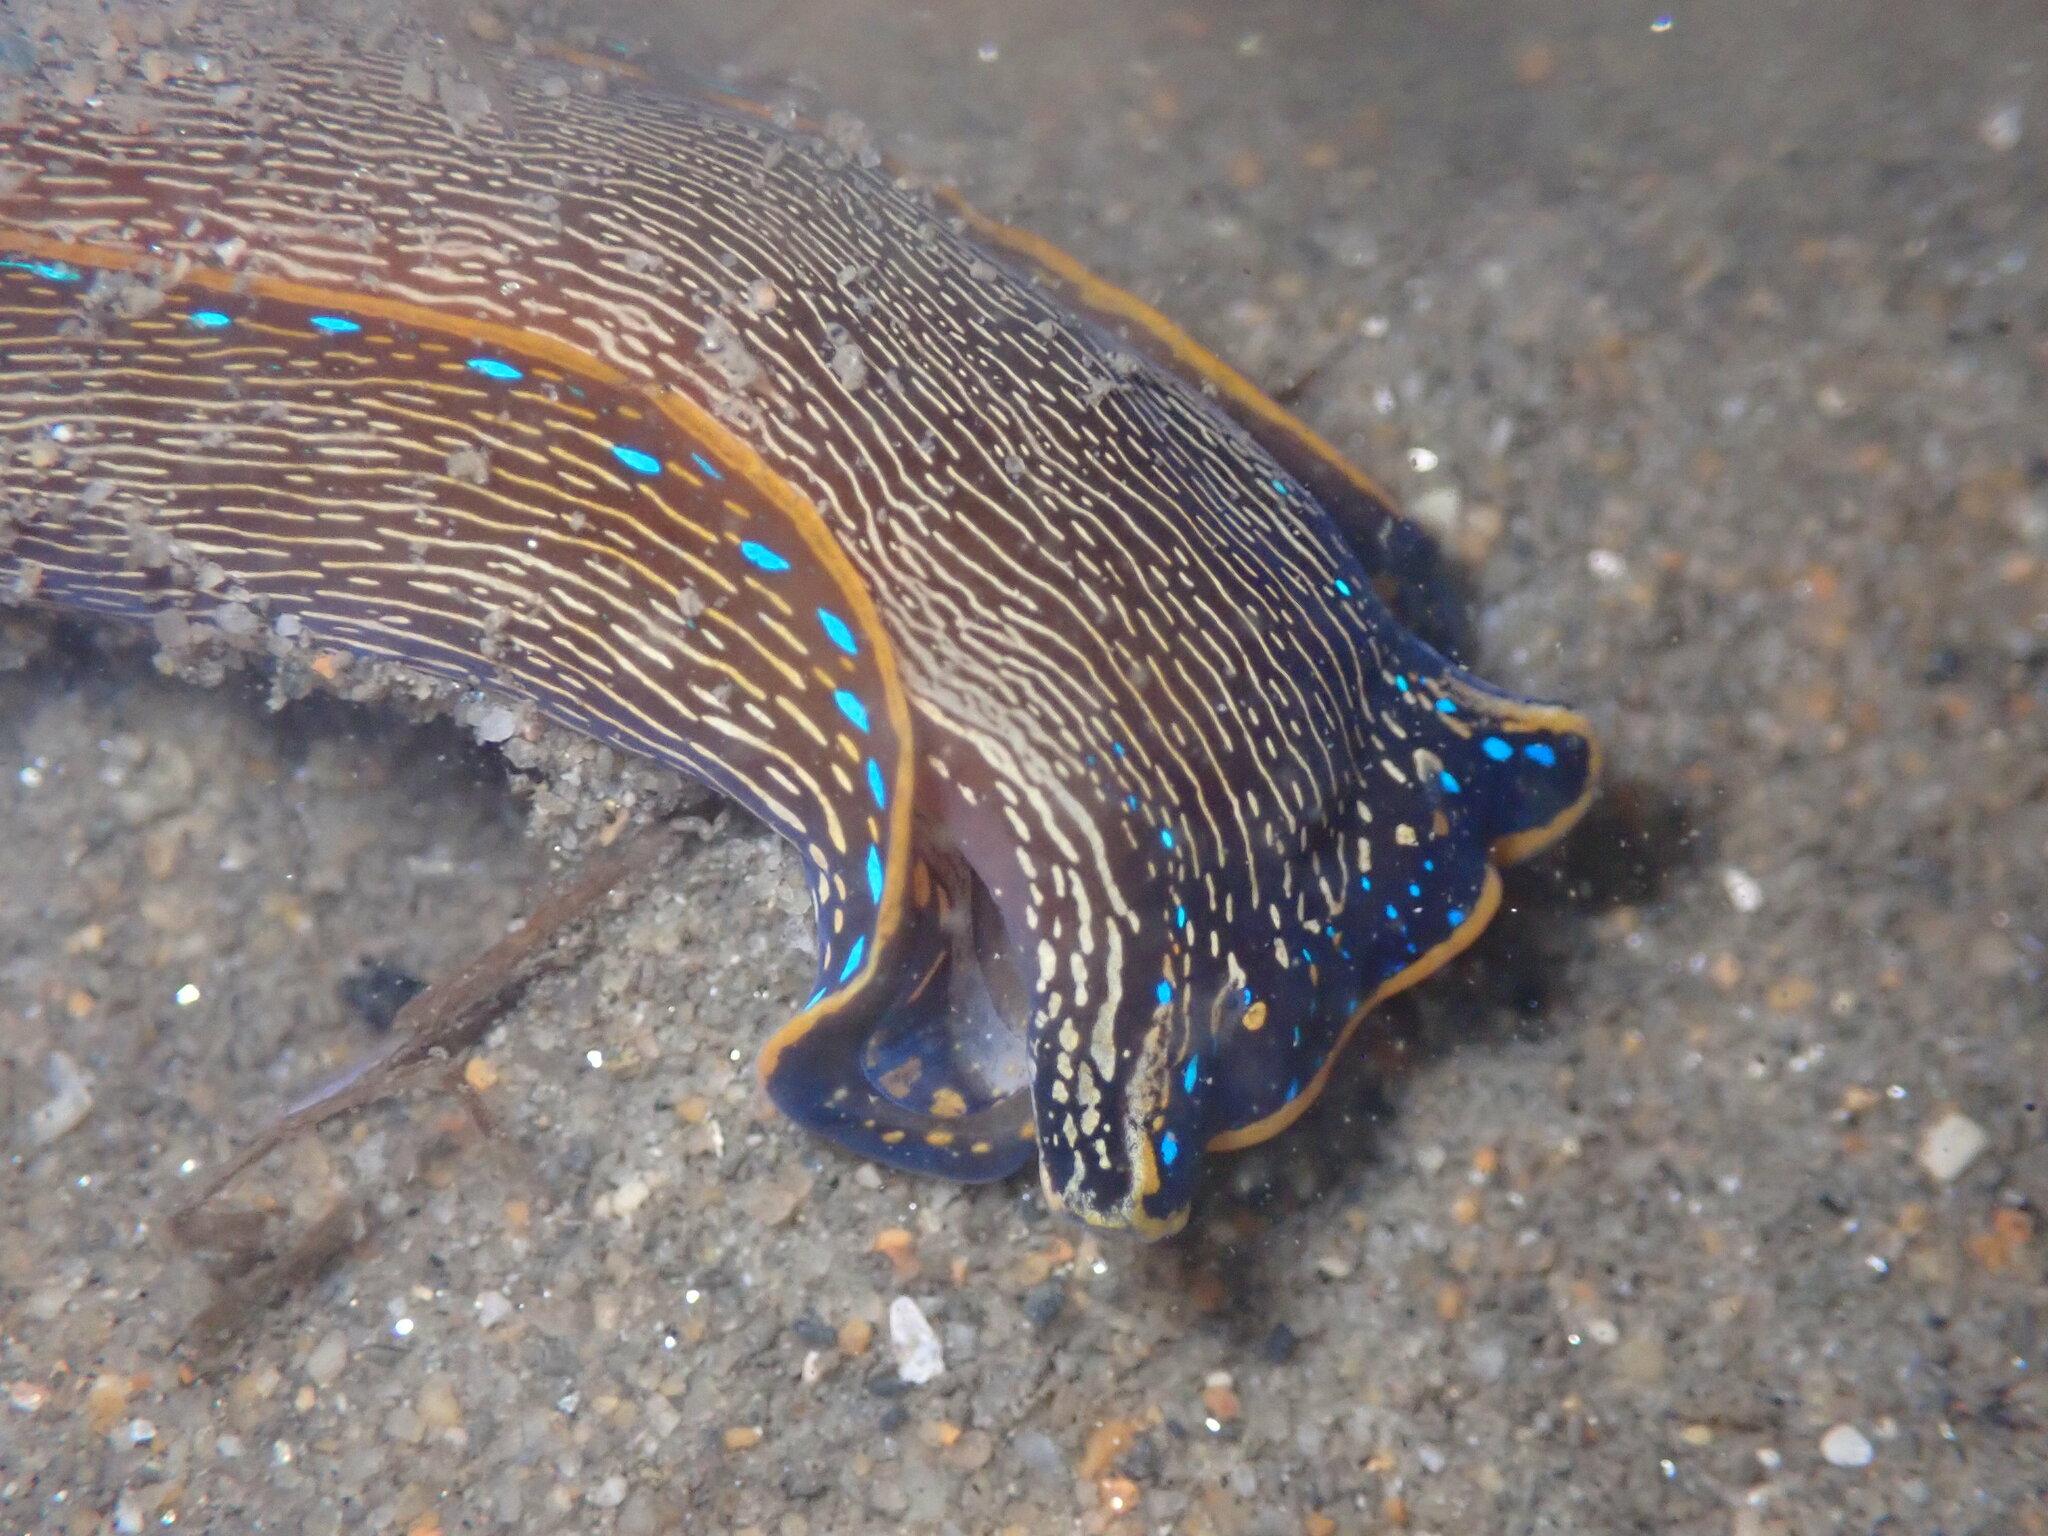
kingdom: Animalia
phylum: Mollusca
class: Gastropoda
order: Cephalaspidea
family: Aglajidae
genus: Navanax
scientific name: Navanax inermis
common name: California aglaja
